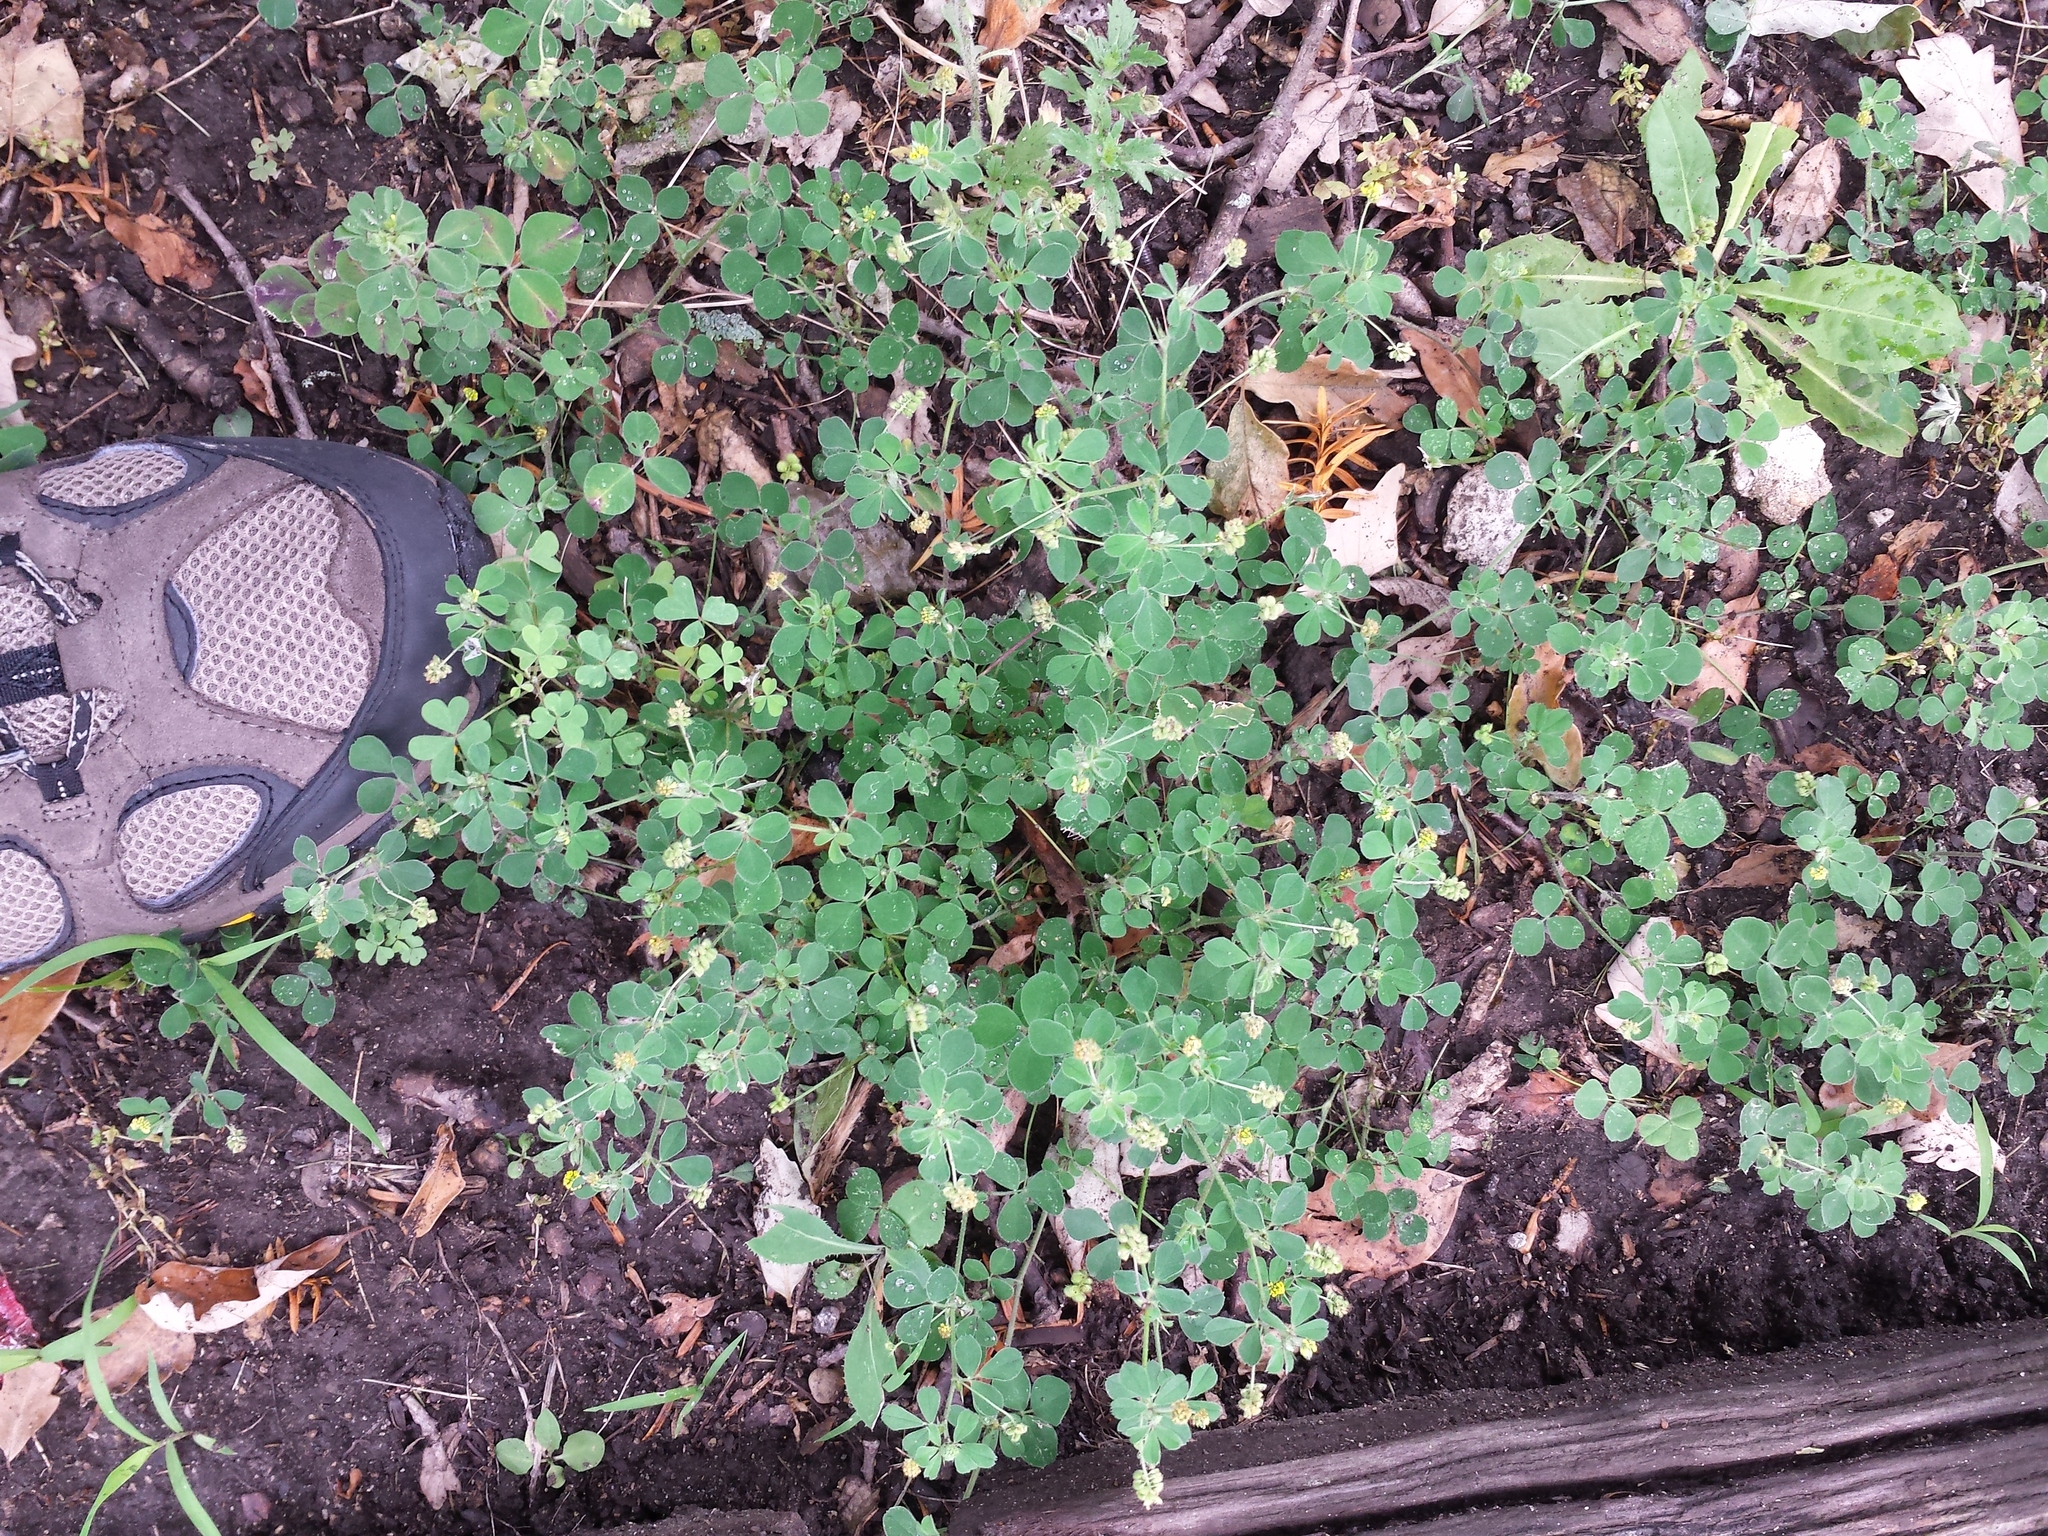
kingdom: Plantae
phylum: Tracheophyta
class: Magnoliopsida
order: Fabales
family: Fabaceae
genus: Medicago
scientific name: Medicago lupulina
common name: Black medick
